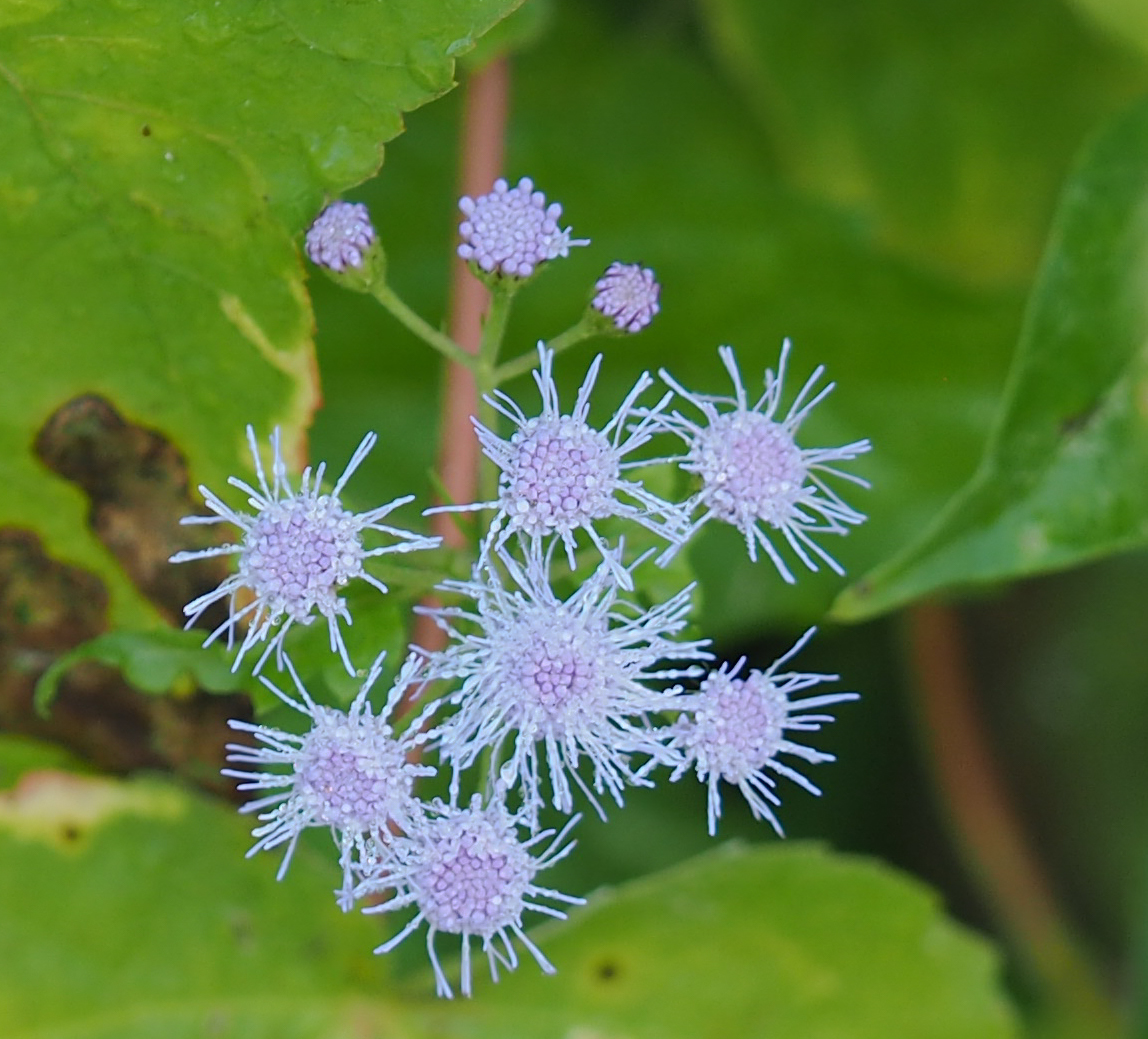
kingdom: Plantae
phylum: Tracheophyta
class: Magnoliopsida
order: Asterales
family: Asteraceae
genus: Conoclinium
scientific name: Conoclinium coelestinum
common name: Blue mistflower
